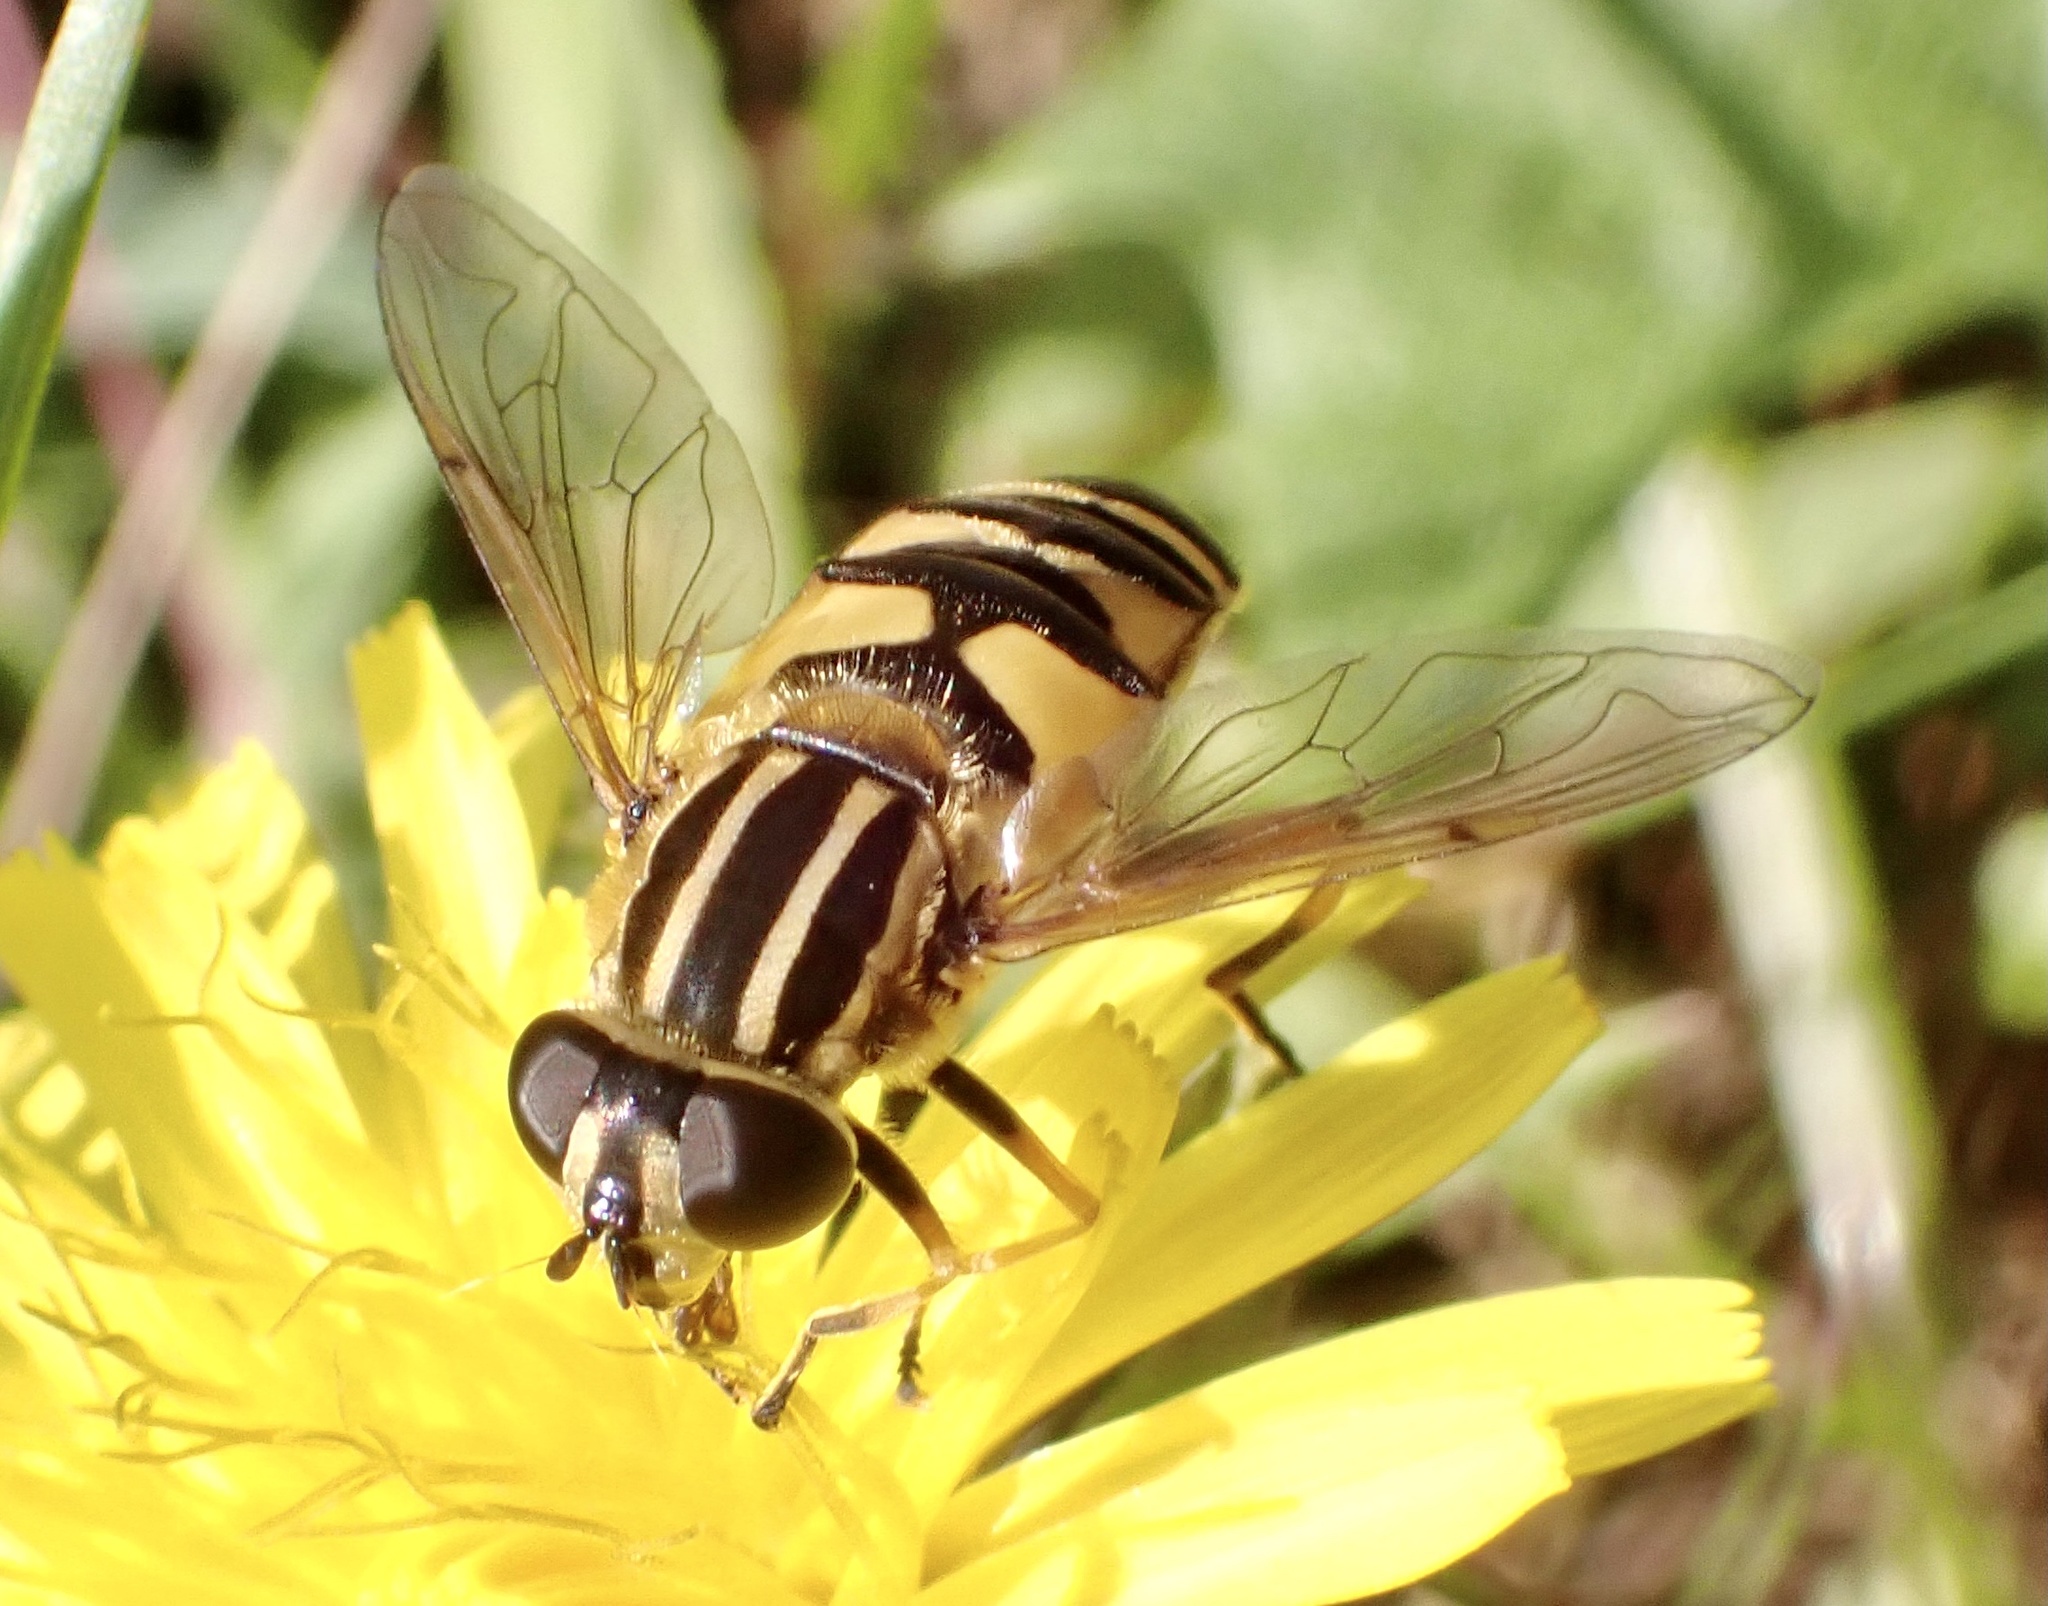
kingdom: Animalia
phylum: Arthropoda
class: Insecta
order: Diptera
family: Syrphidae
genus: Helophilus
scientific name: Helophilus pendulus
